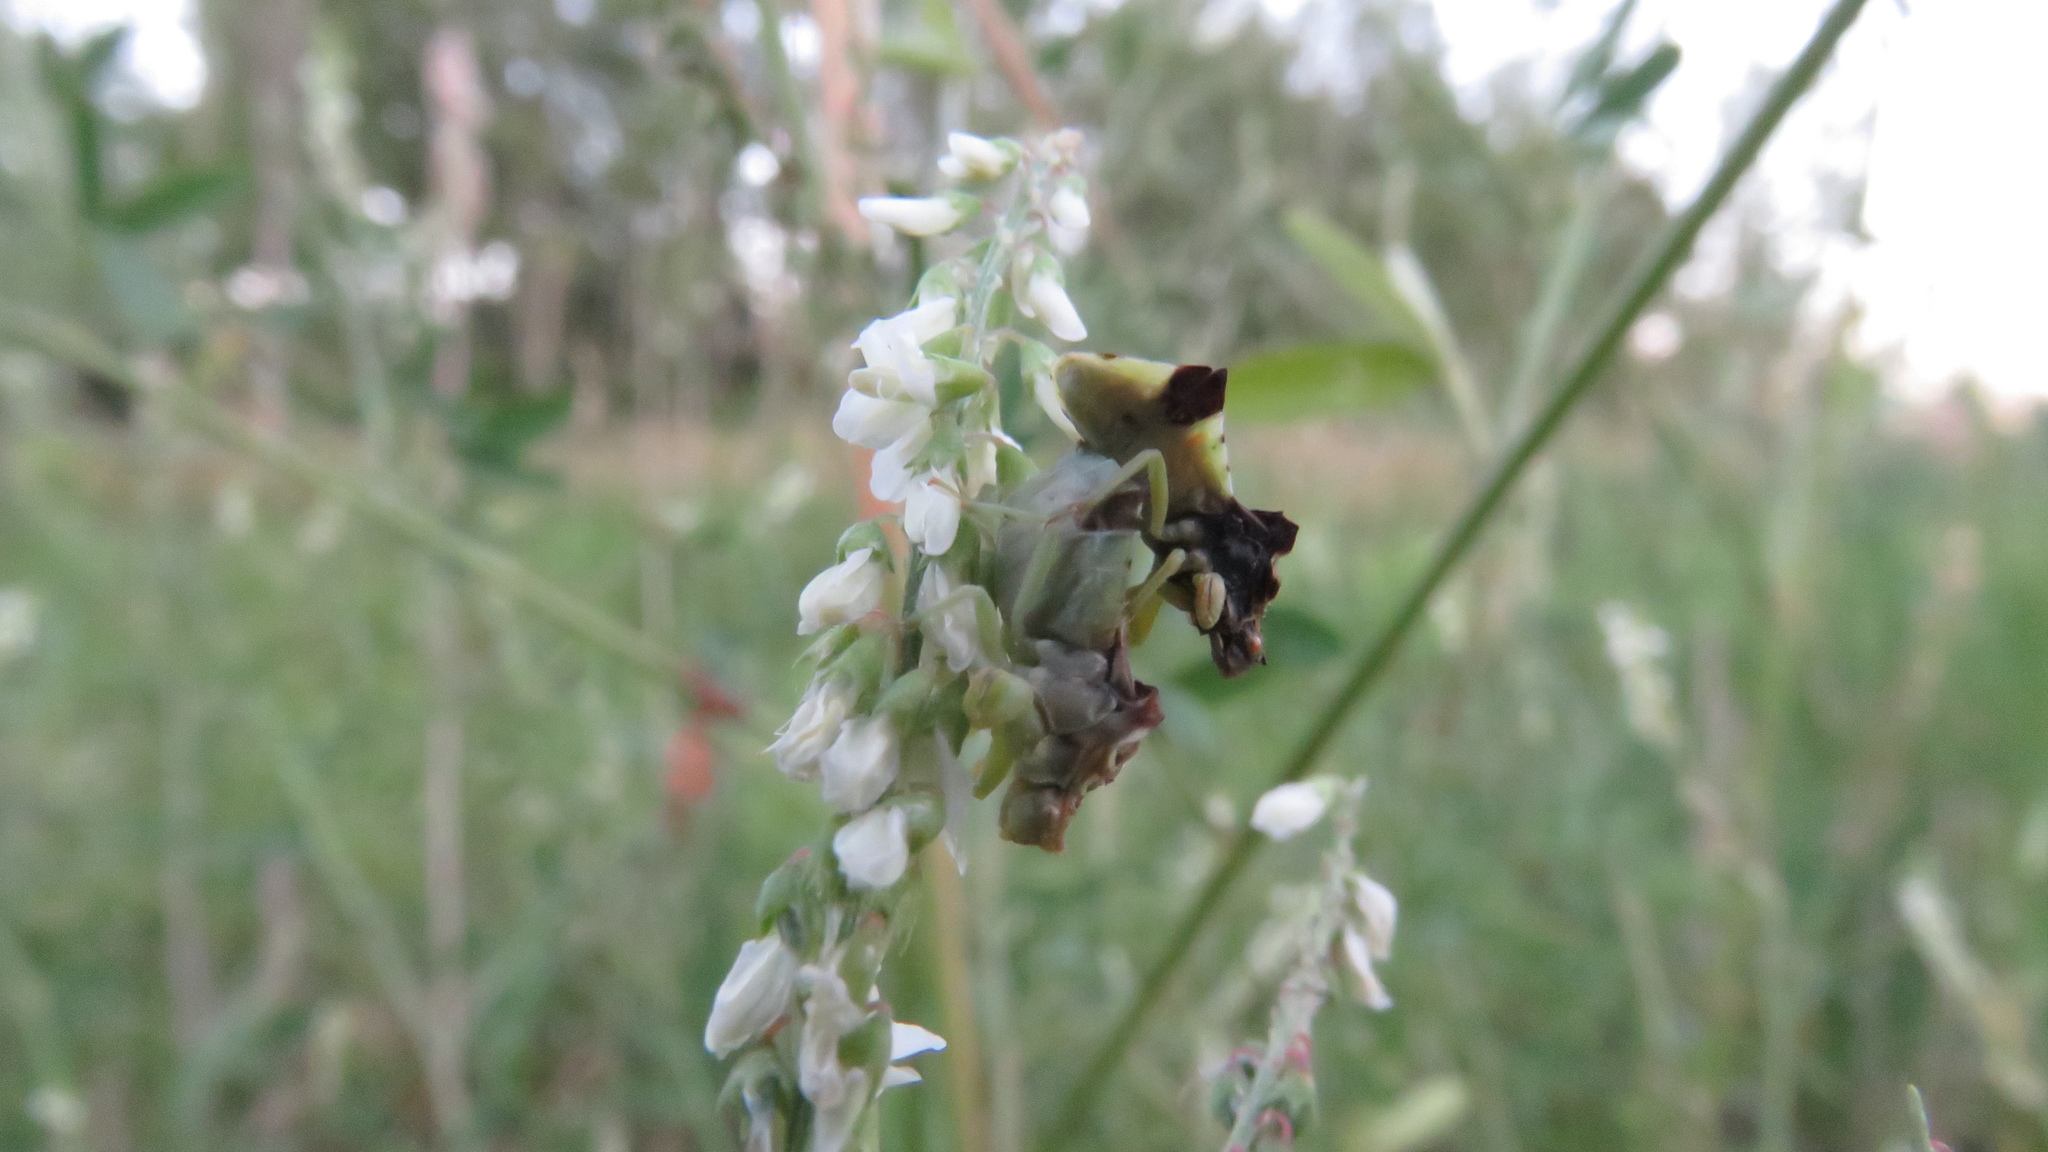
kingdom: Animalia
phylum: Arthropoda
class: Insecta
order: Hemiptera
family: Reduviidae
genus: Phymata
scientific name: Phymata americana
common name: Jagged ambush bug
